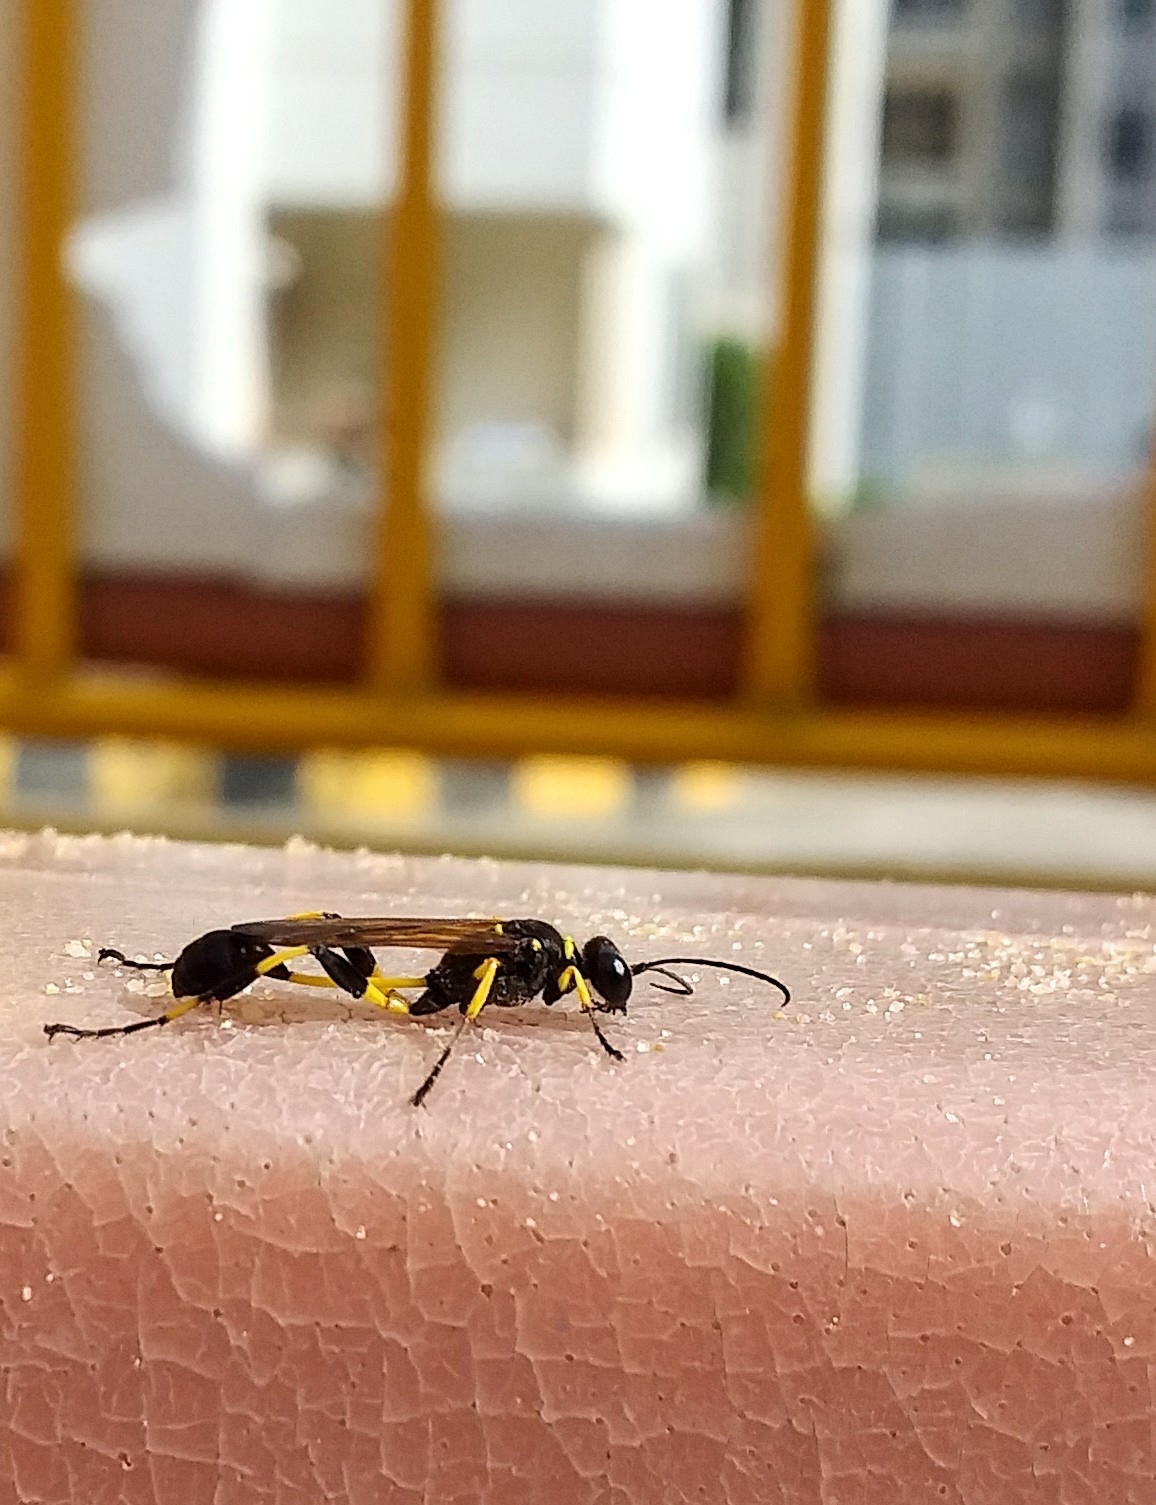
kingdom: Animalia
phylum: Arthropoda
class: Insecta
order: Hymenoptera
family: Sphecidae
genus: Sceliphron
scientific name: Sceliphron madraspatanum
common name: Mud dauber
